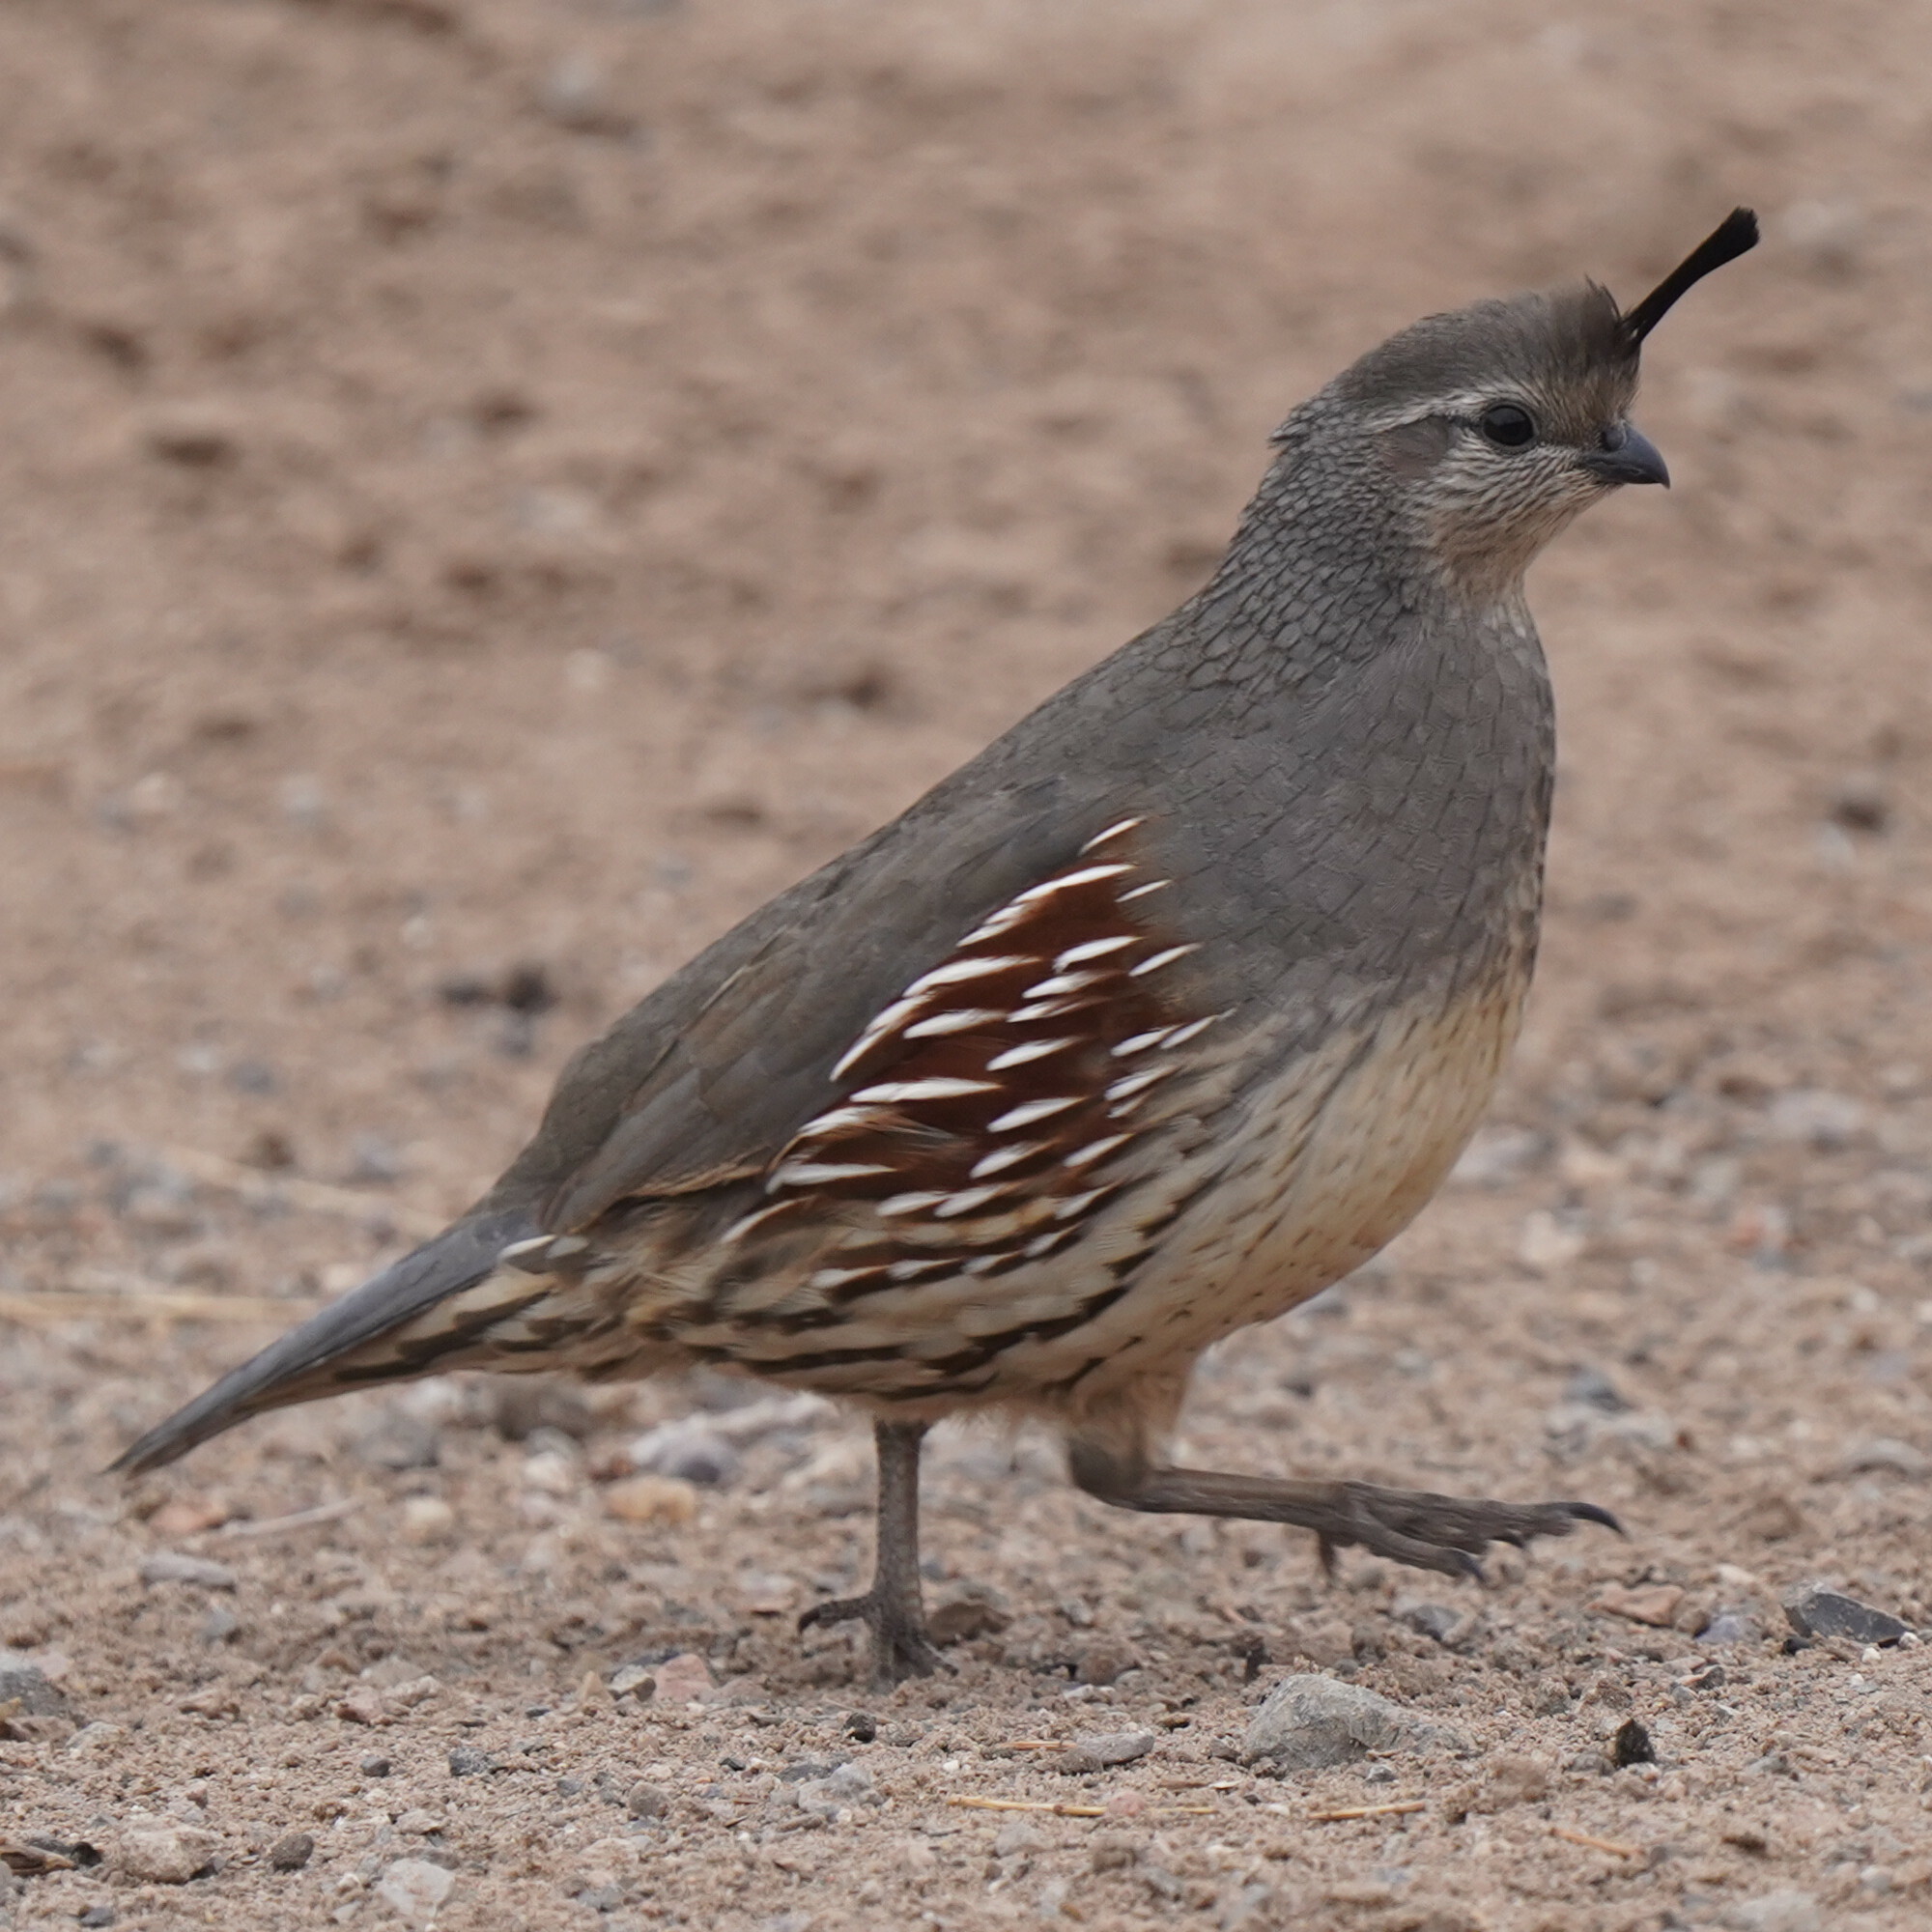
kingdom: Animalia
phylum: Chordata
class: Aves
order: Galliformes
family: Odontophoridae
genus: Callipepla
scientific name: Callipepla gambelii
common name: Gambel's quail
